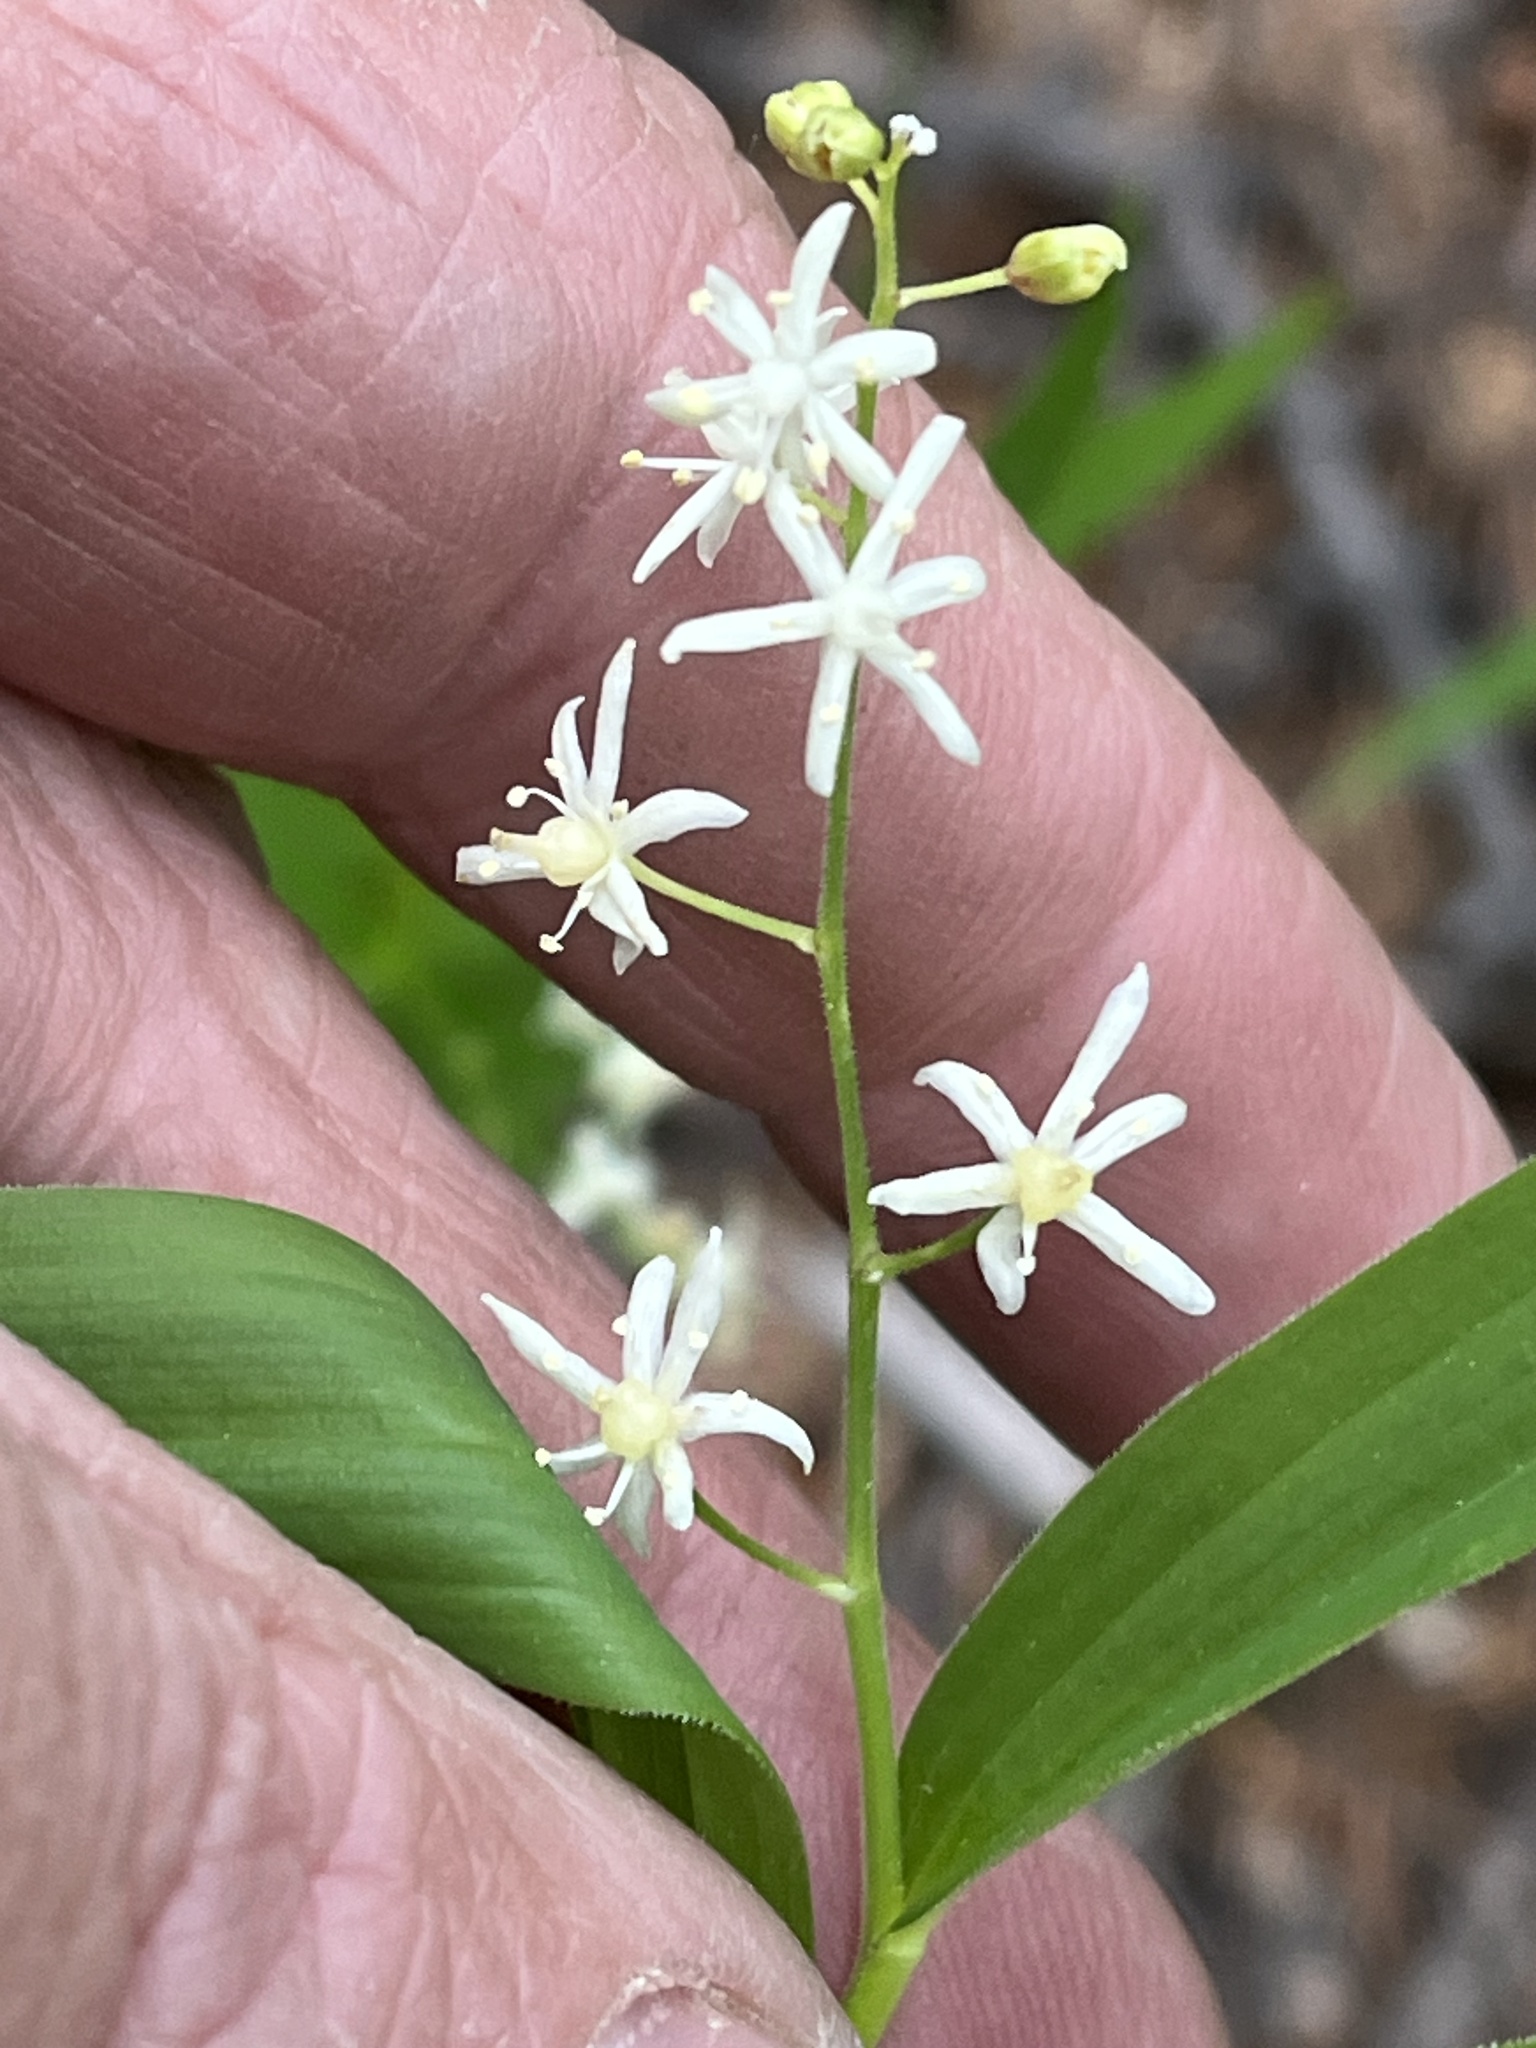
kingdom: Plantae
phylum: Tracheophyta
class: Liliopsida
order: Asparagales
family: Asparagaceae
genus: Maianthemum
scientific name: Maianthemum stellatum
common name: Little false solomon's seal
